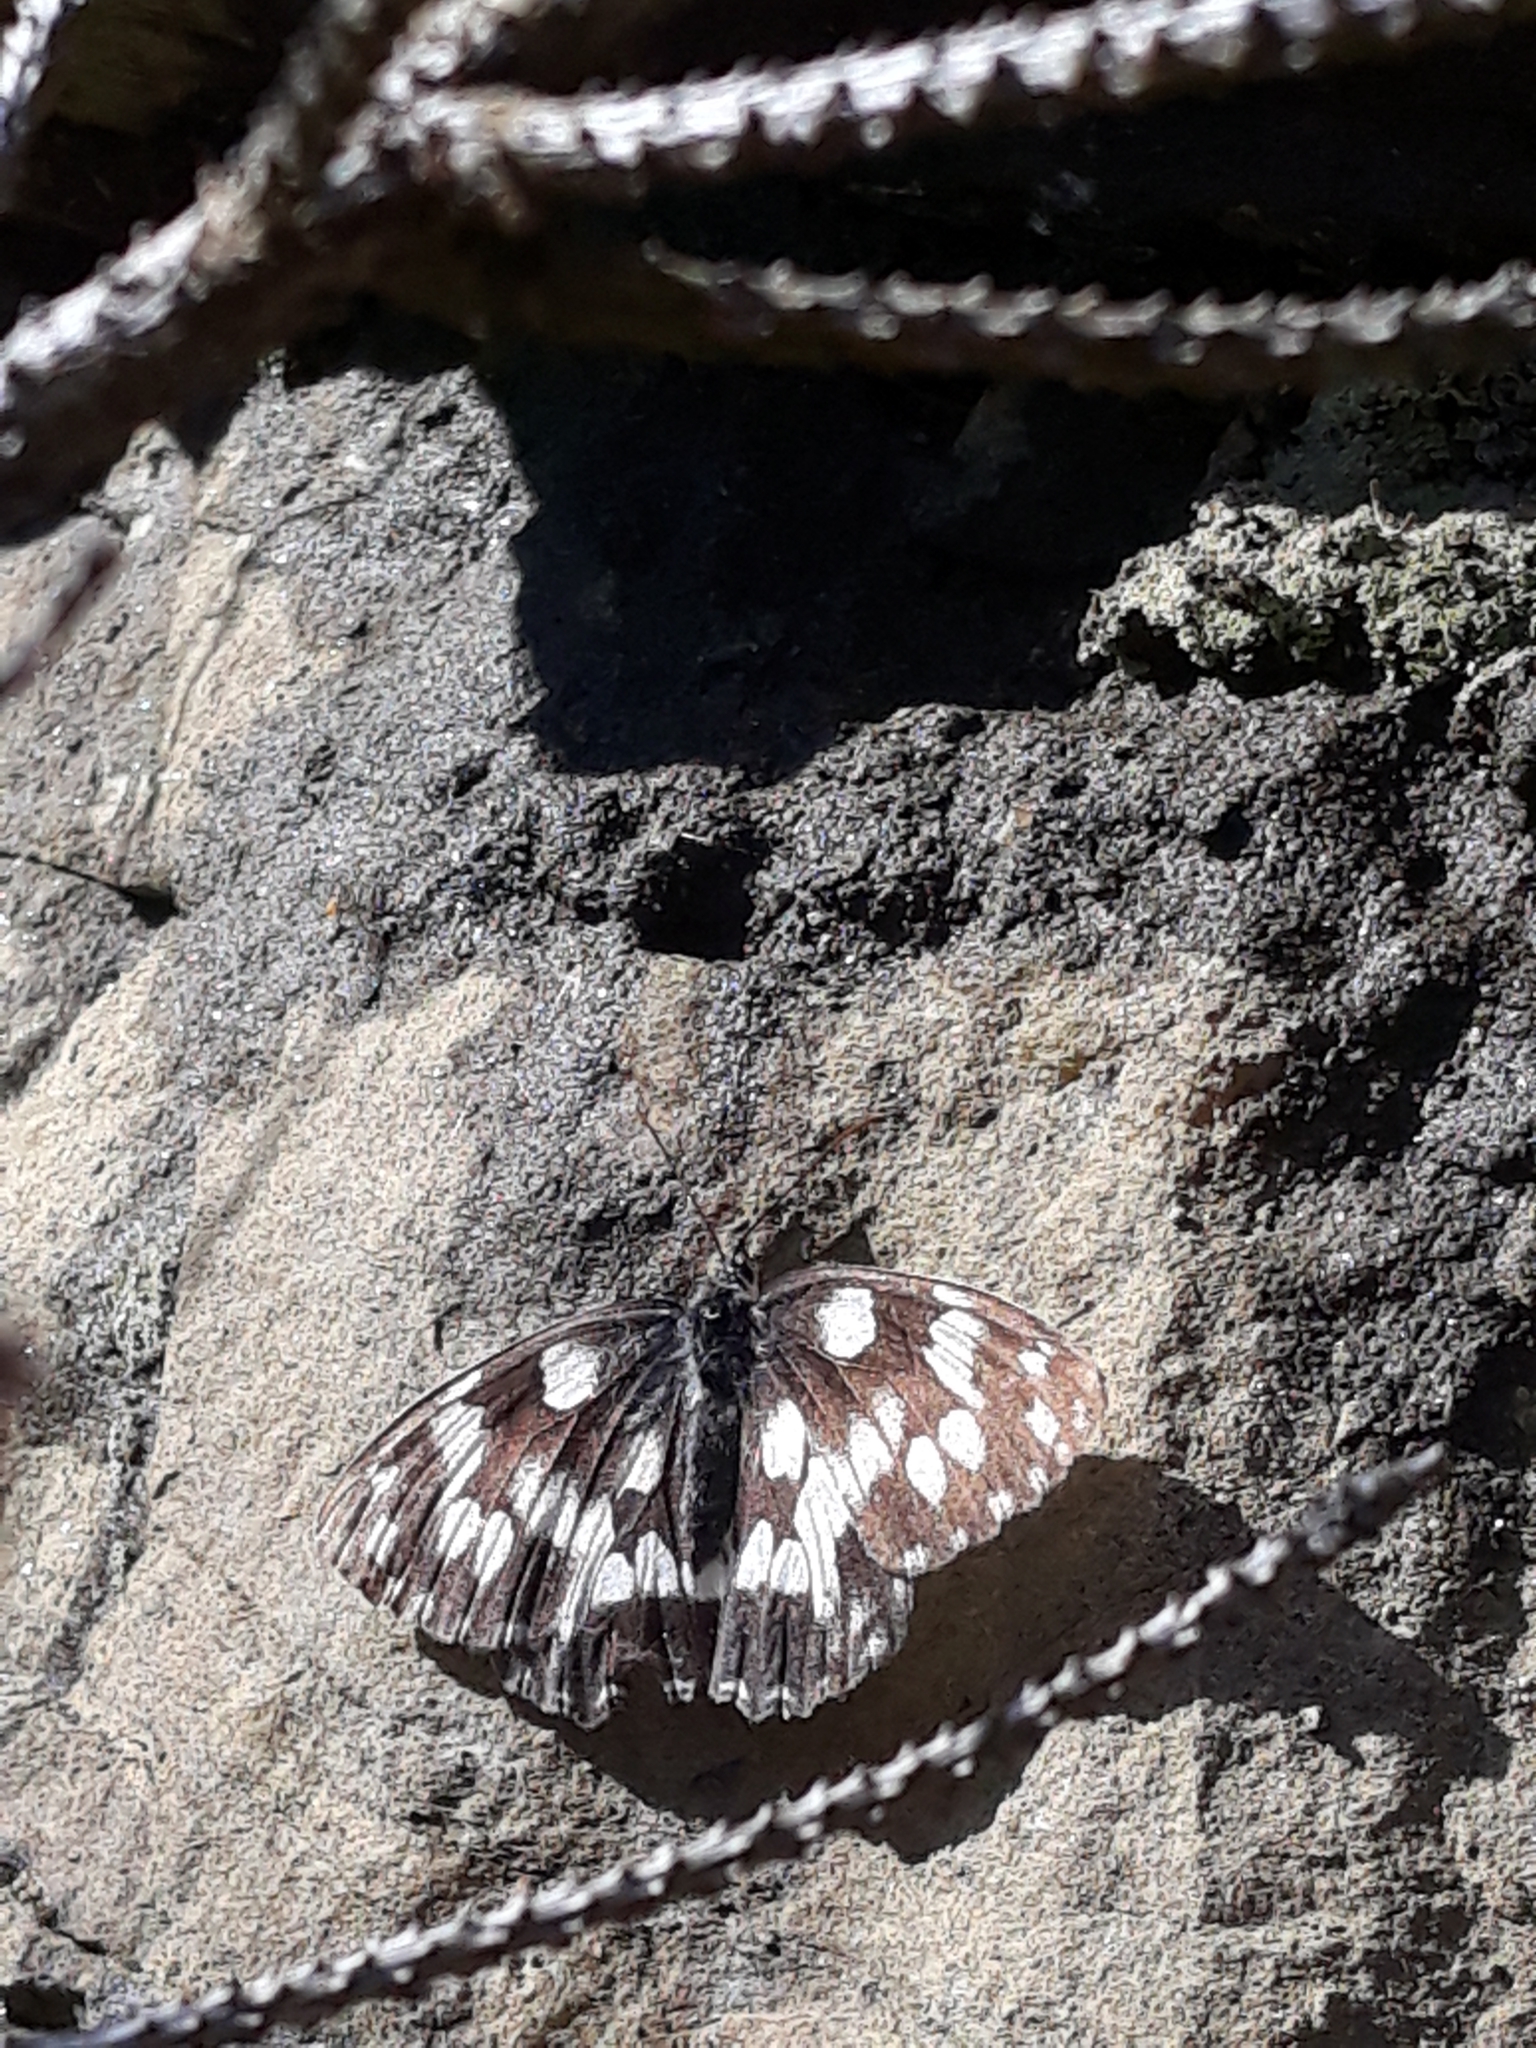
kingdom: Animalia
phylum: Arthropoda
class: Insecta
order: Lepidoptera
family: Nymphalidae
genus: Melanargia
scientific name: Melanargia galathea
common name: Marbled white
